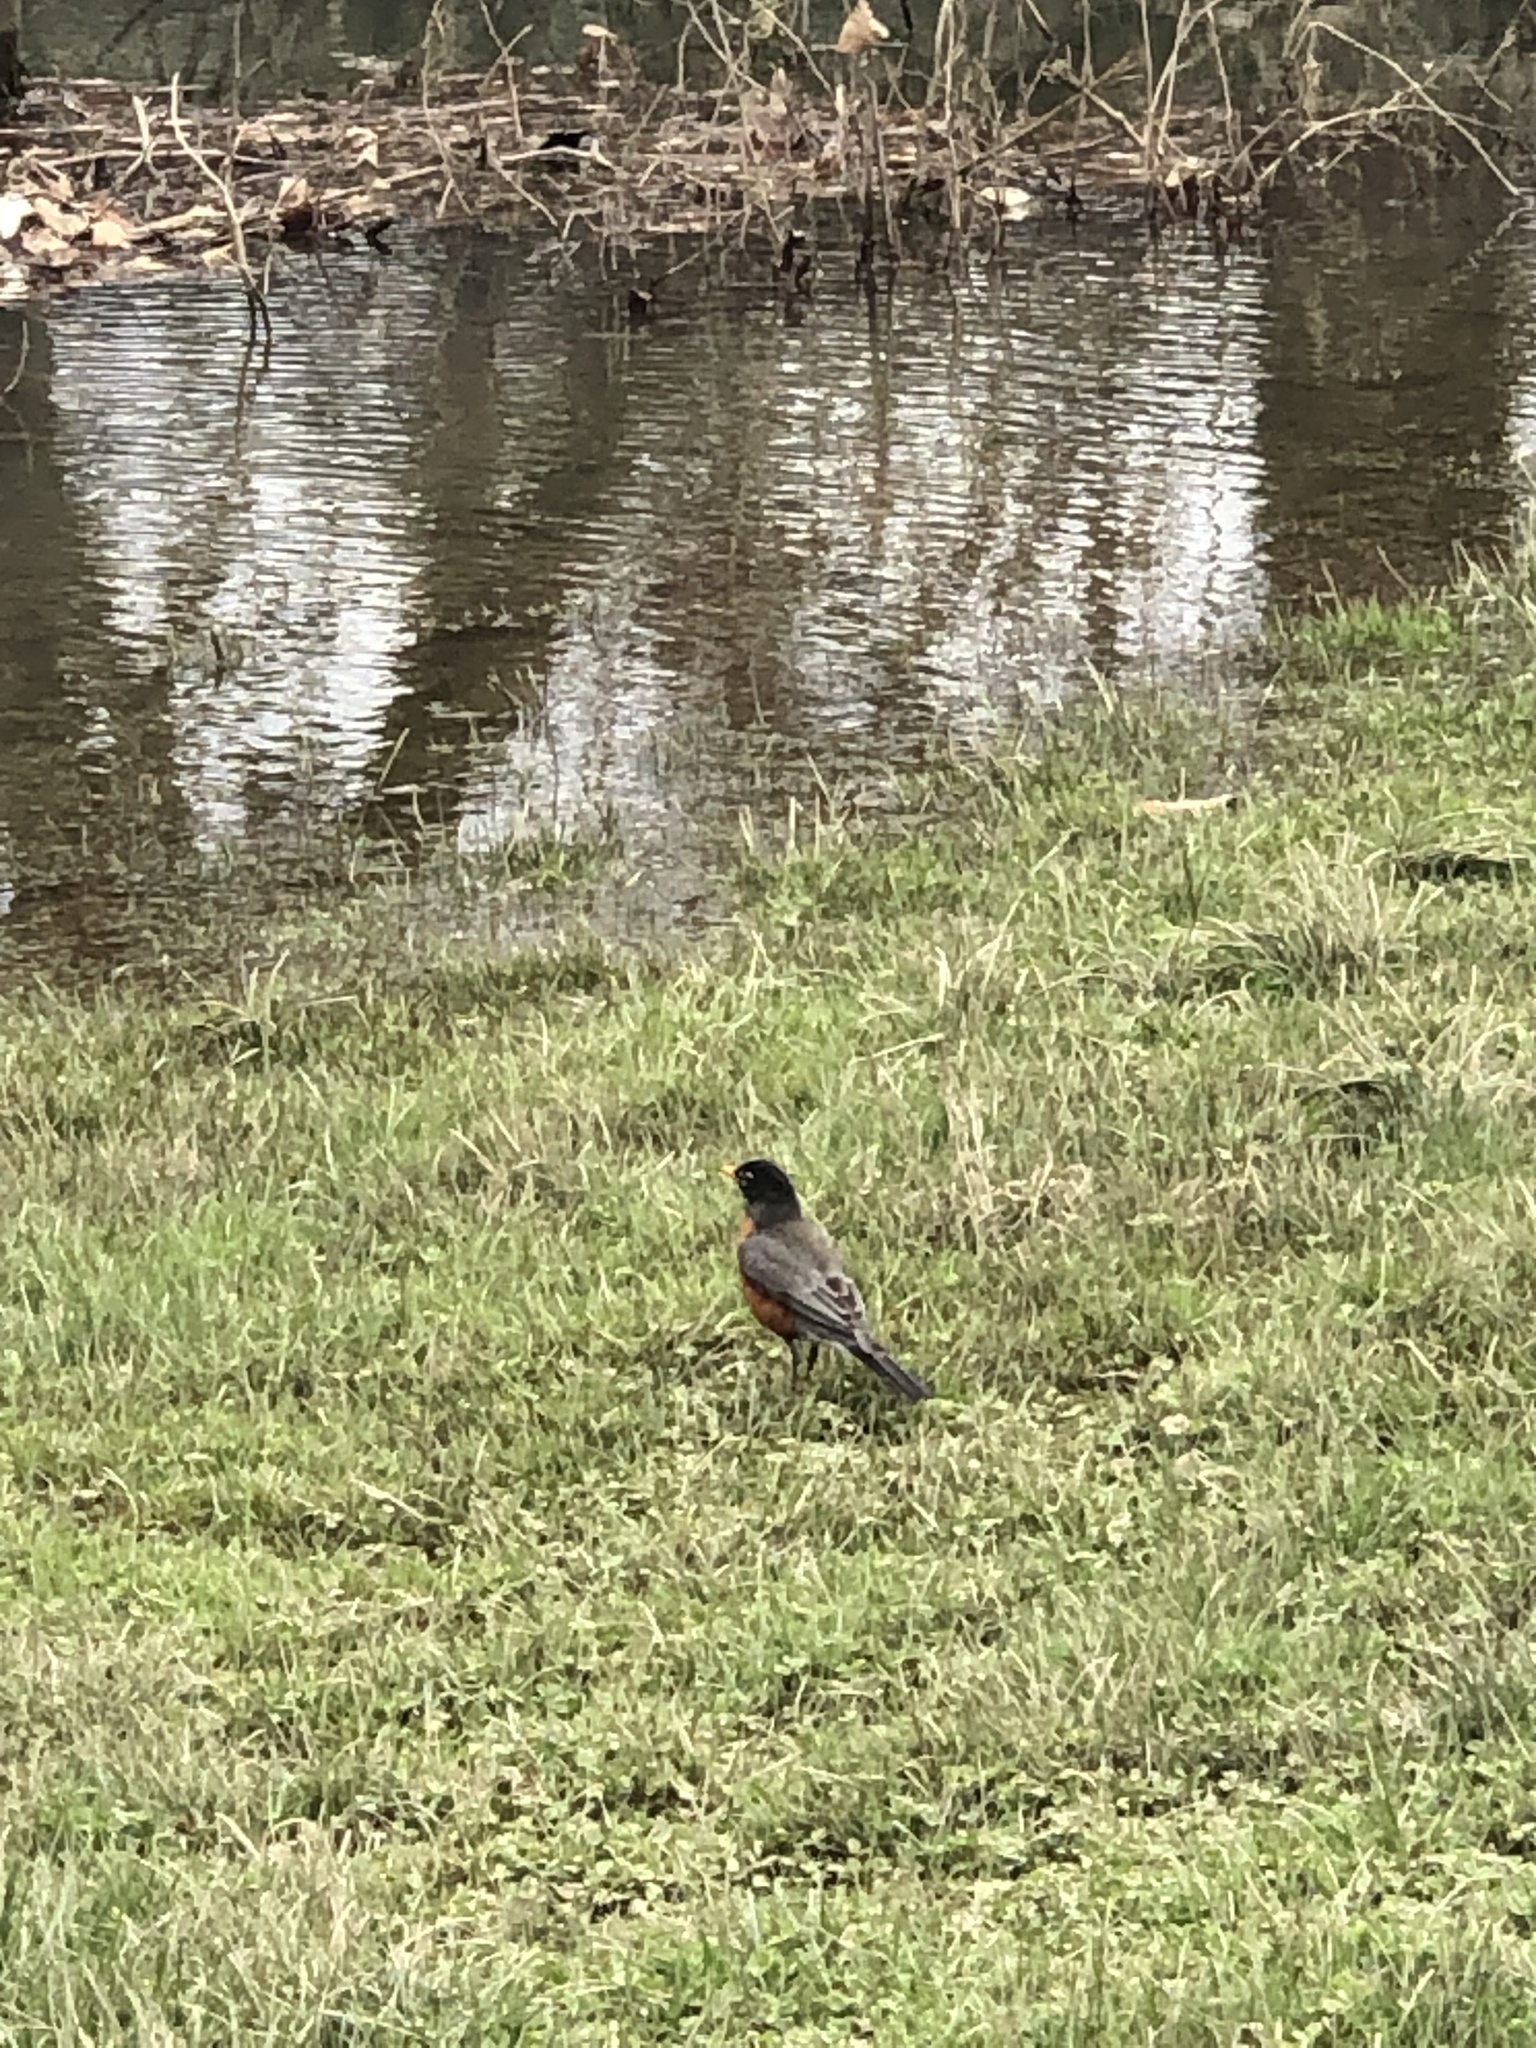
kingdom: Animalia
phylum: Chordata
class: Aves
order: Passeriformes
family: Turdidae
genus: Turdus
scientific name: Turdus migratorius
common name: American robin
